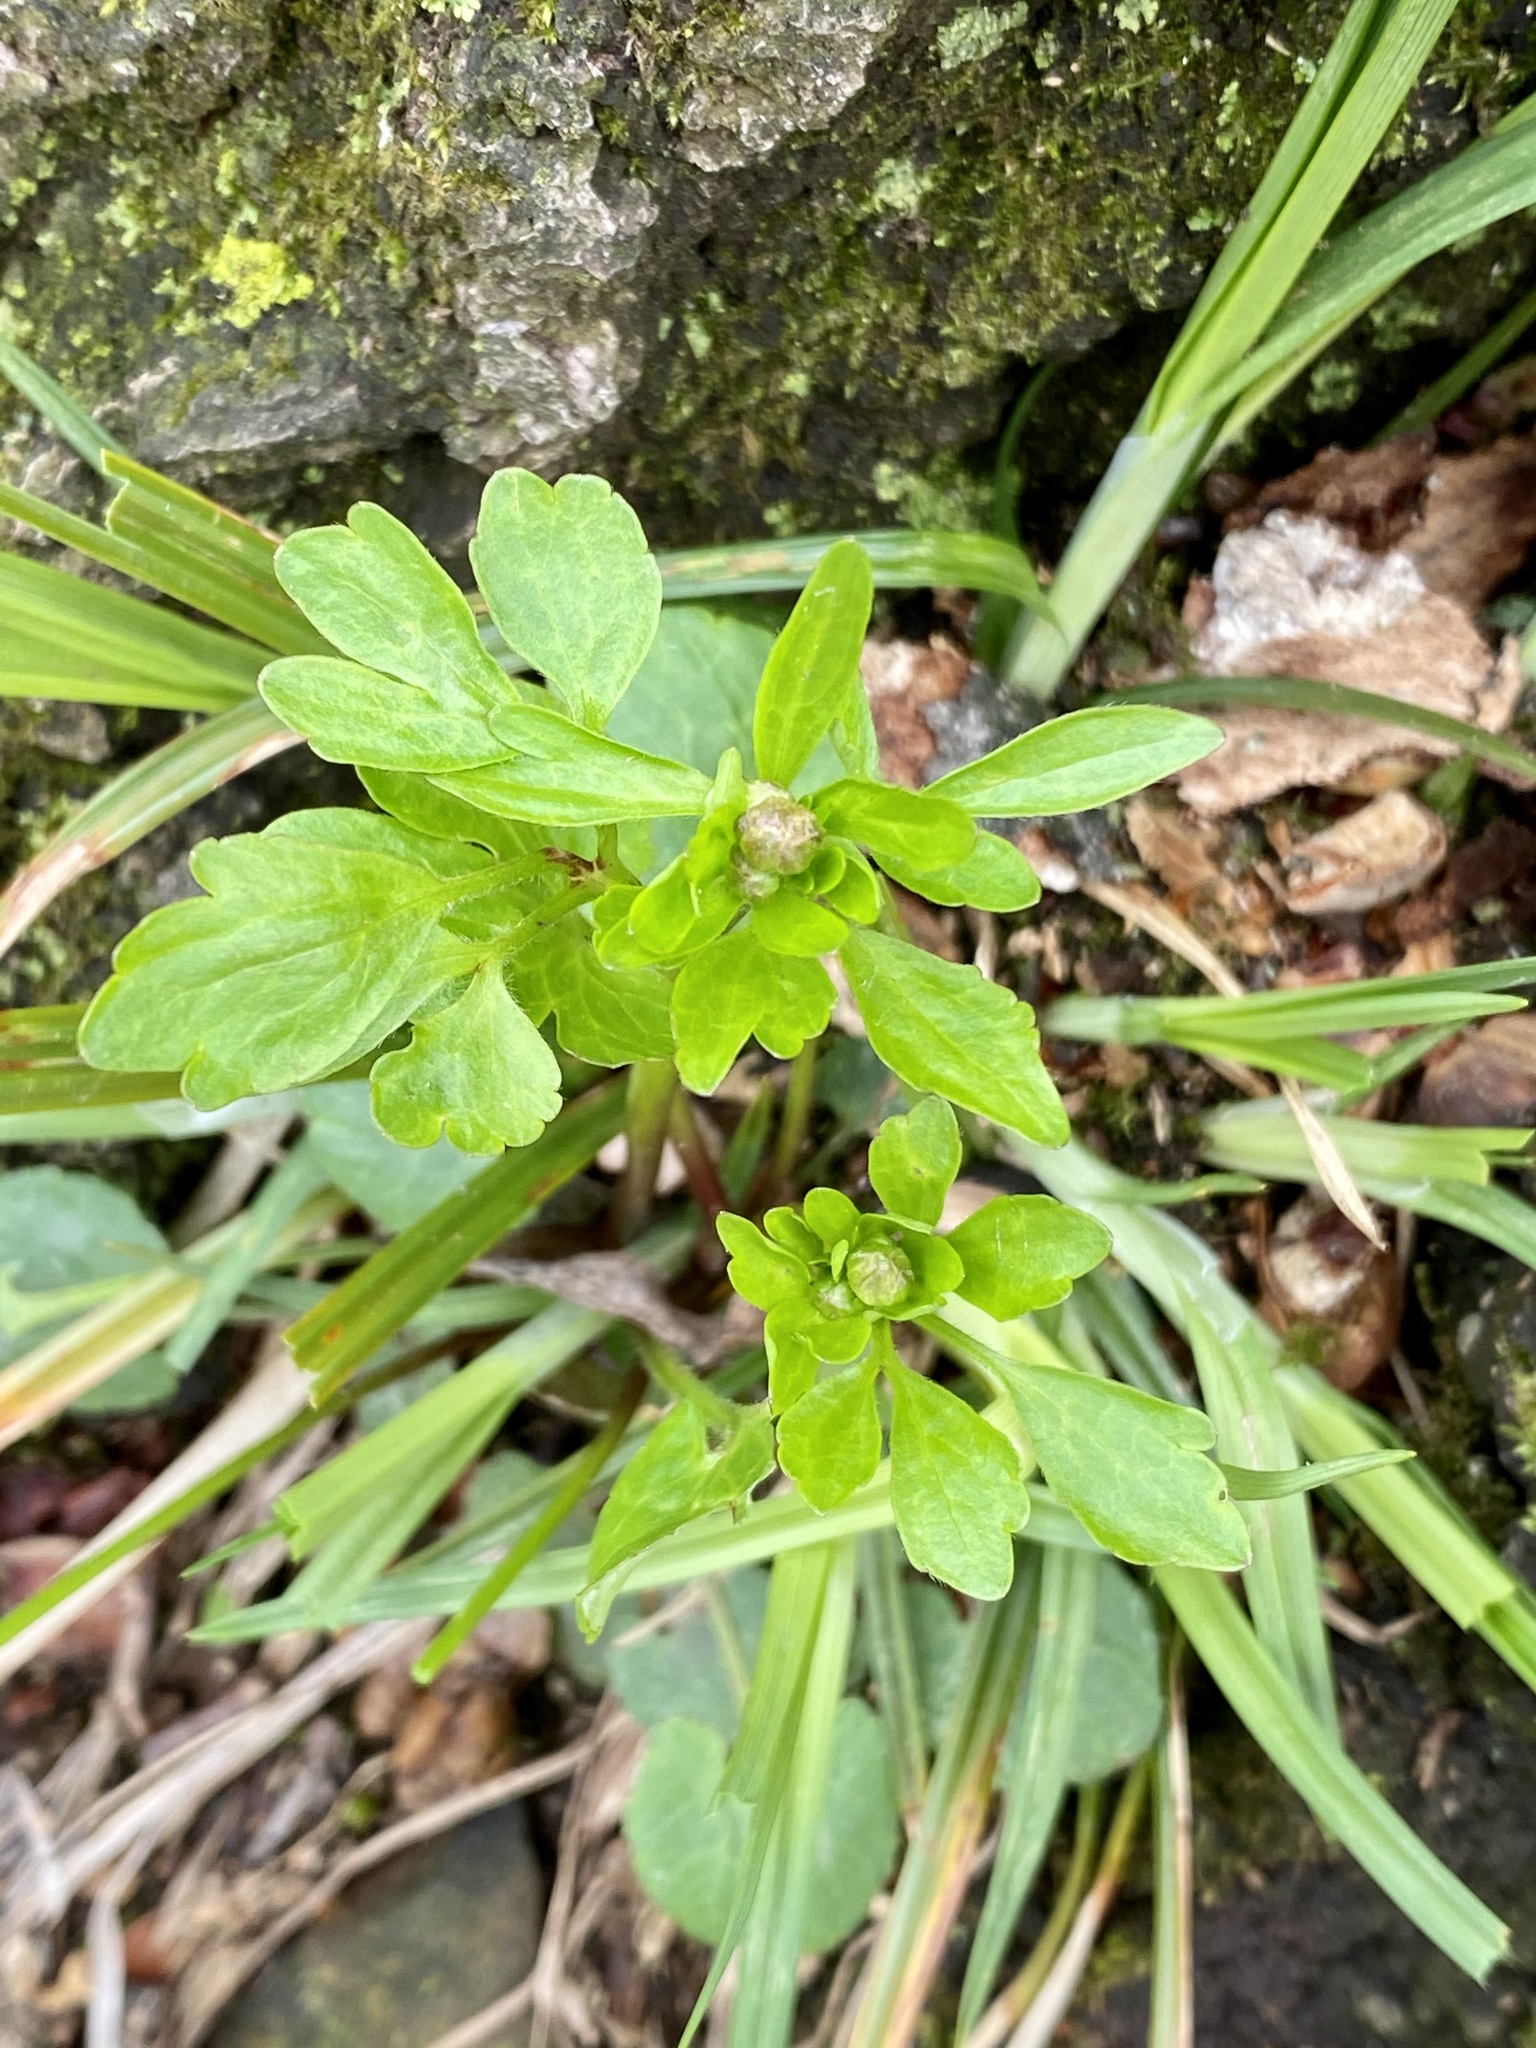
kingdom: Plantae
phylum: Tracheophyta
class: Magnoliopsida
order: Ranunculales
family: Ranunculaceae
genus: Ranunculus
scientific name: Ranunculus abortivus
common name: Early wood buttercup
